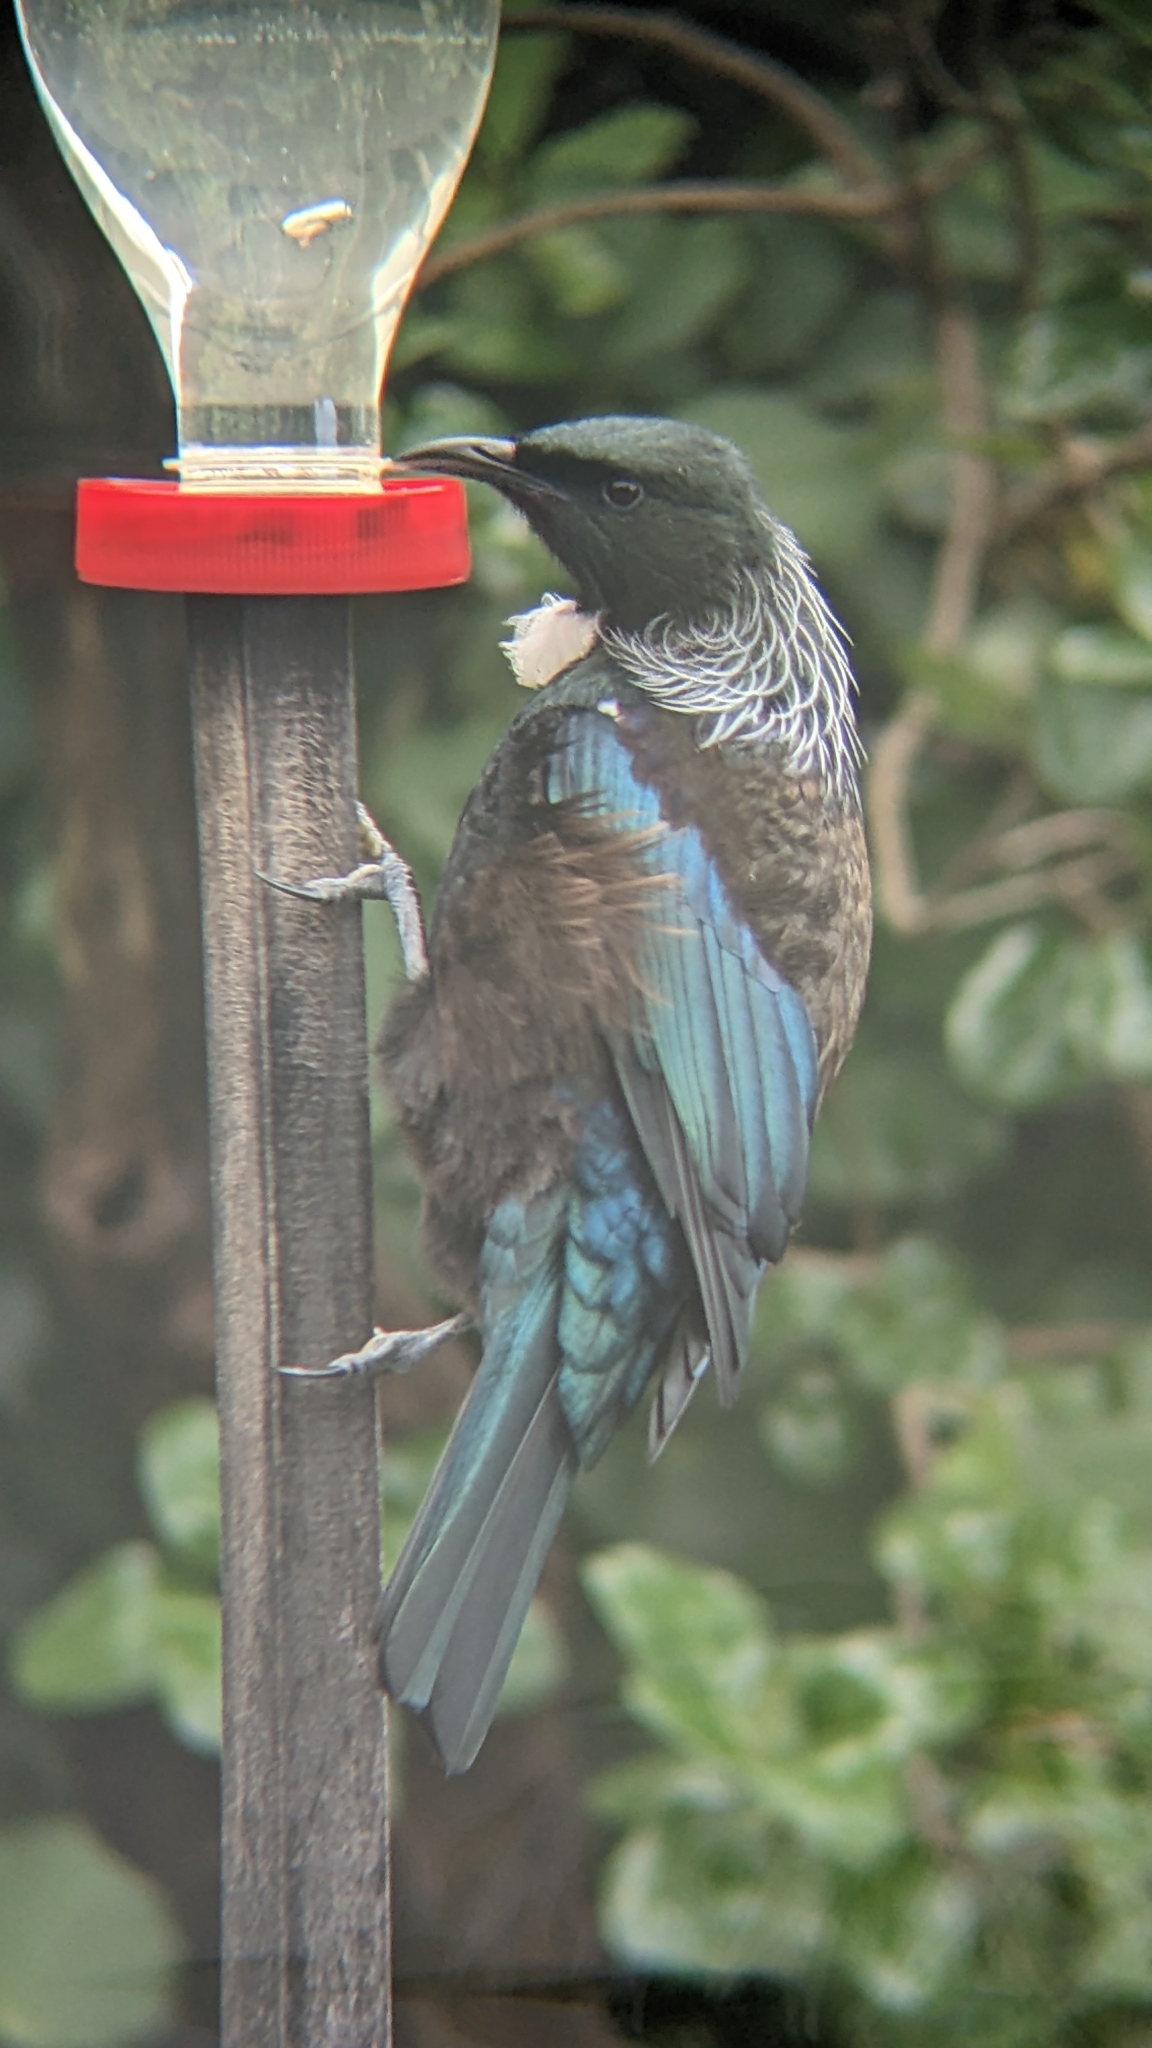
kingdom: Animalia
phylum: Chordata
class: Aves
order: Passeriformes
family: Meliphagidae
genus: Prosthemadera
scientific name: Prosthemadera novaeseelandiae
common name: Tui
